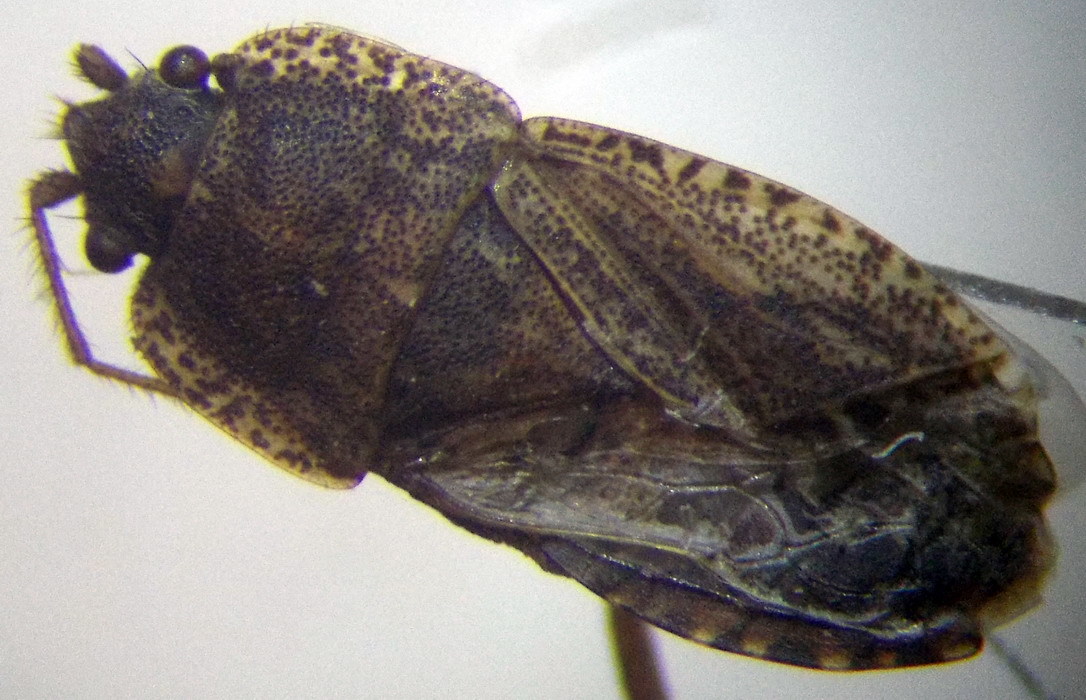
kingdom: Animalia
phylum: Arthropoda
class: Insecta
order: Hemiptera
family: Rhyparochromidae
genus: Emblethis
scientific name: Emblethis ciliatus
